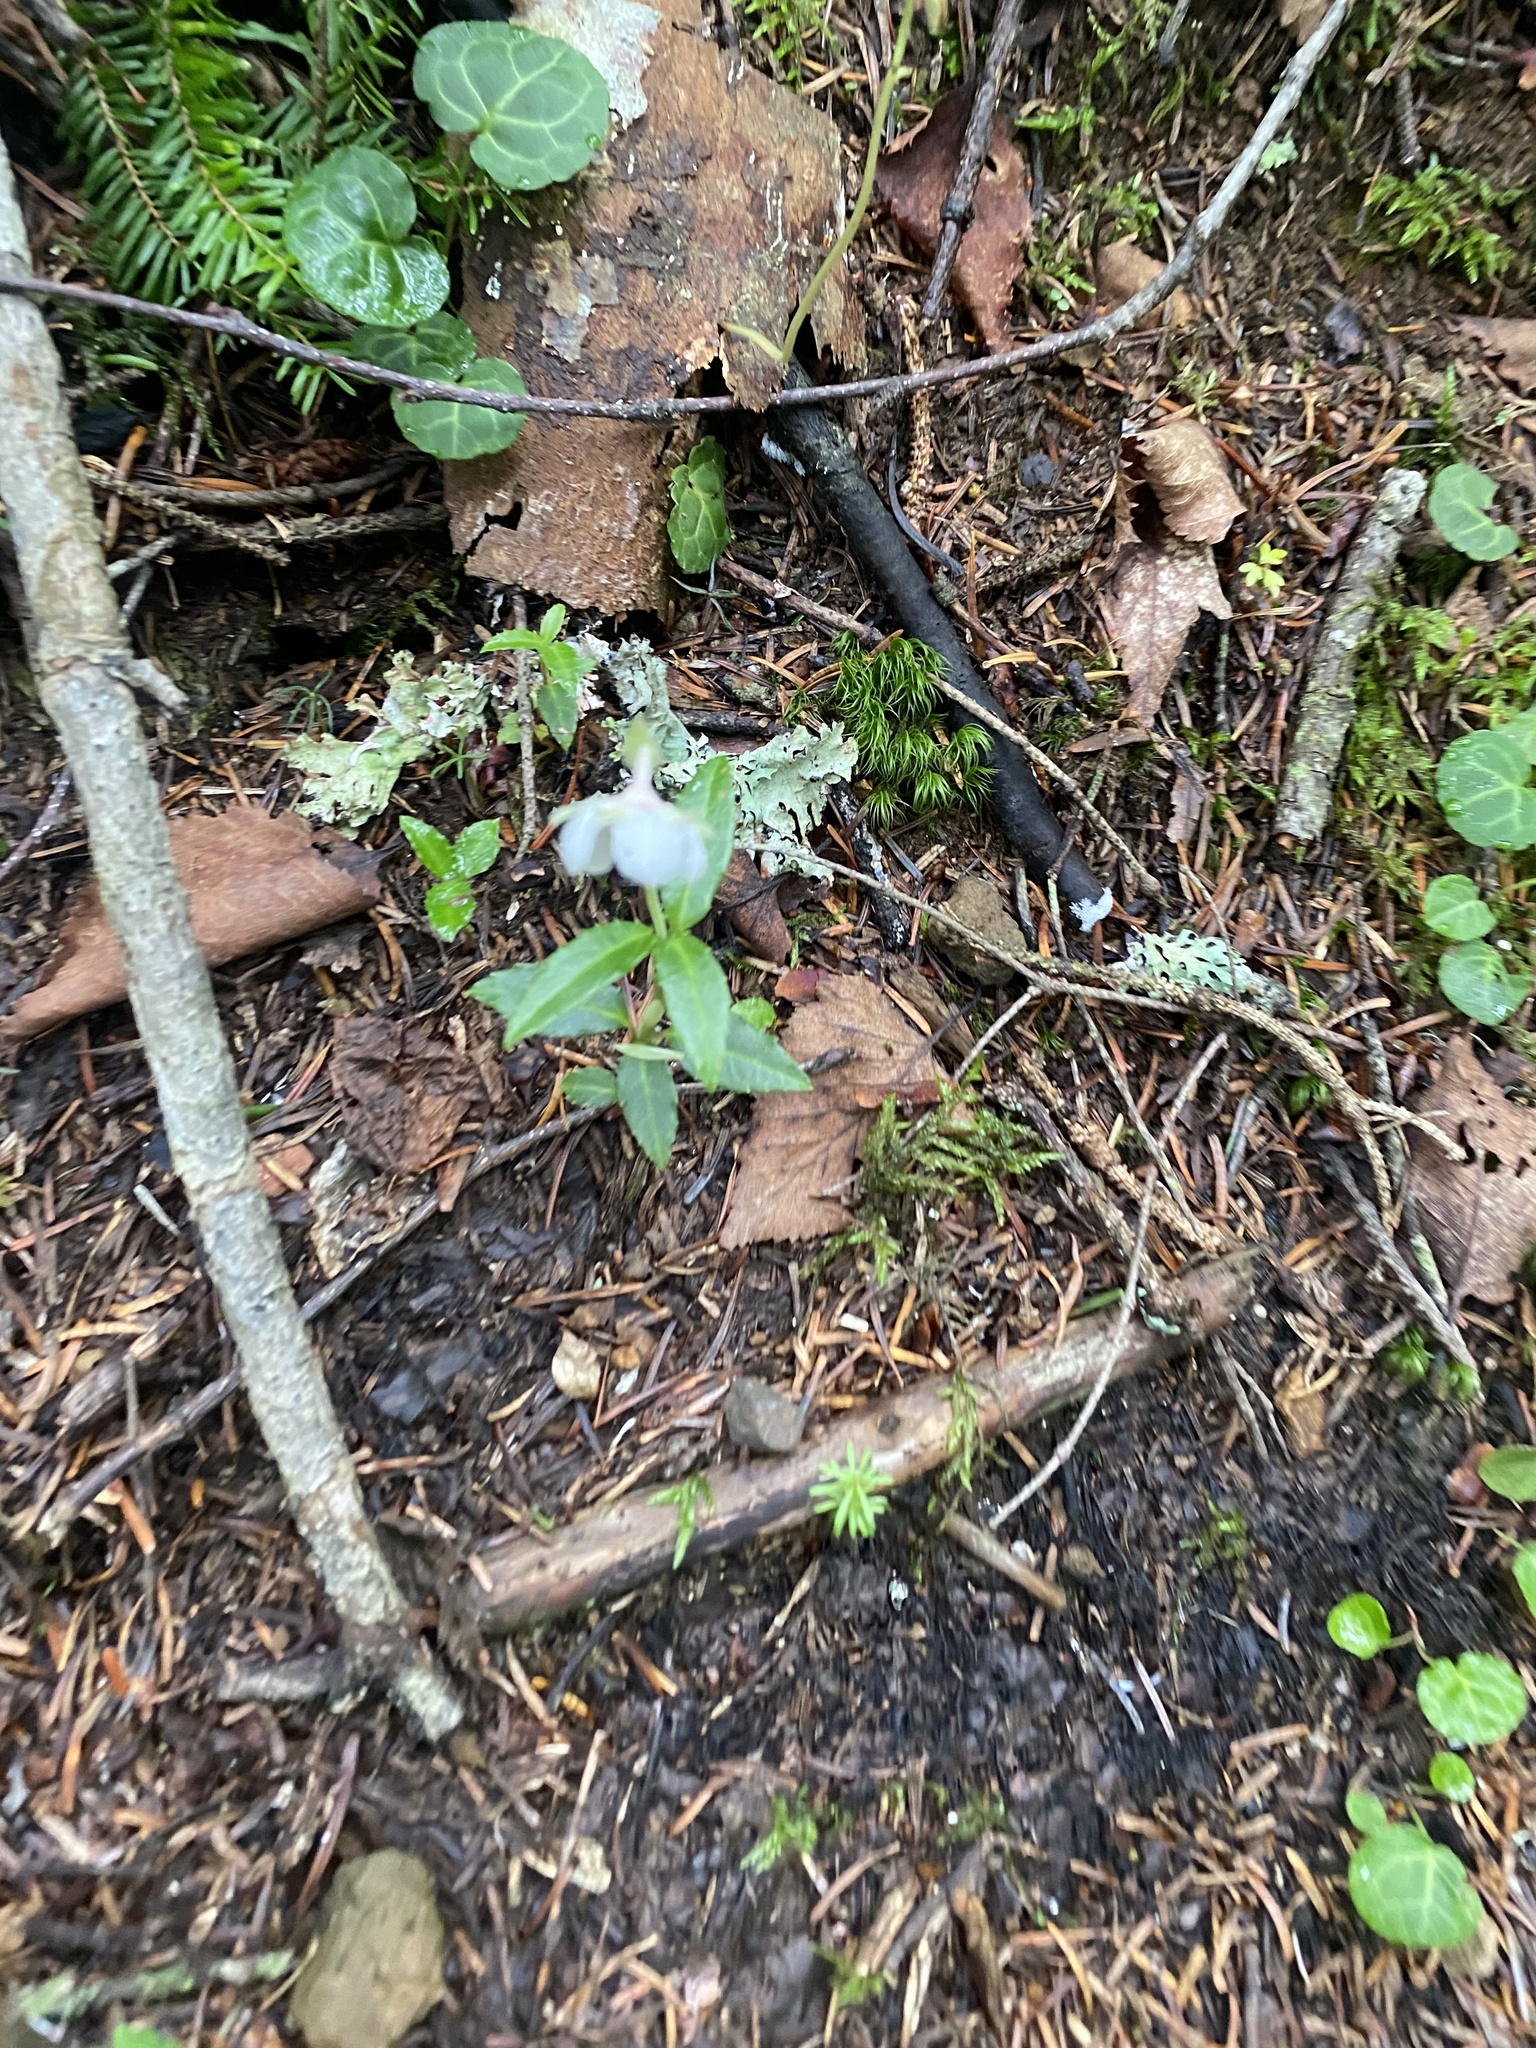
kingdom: Plantae
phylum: Tracheophyta
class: Magnoliopsida
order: Ericales
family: Ericaceae
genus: Chimaphila
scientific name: Chimaphila japonica
